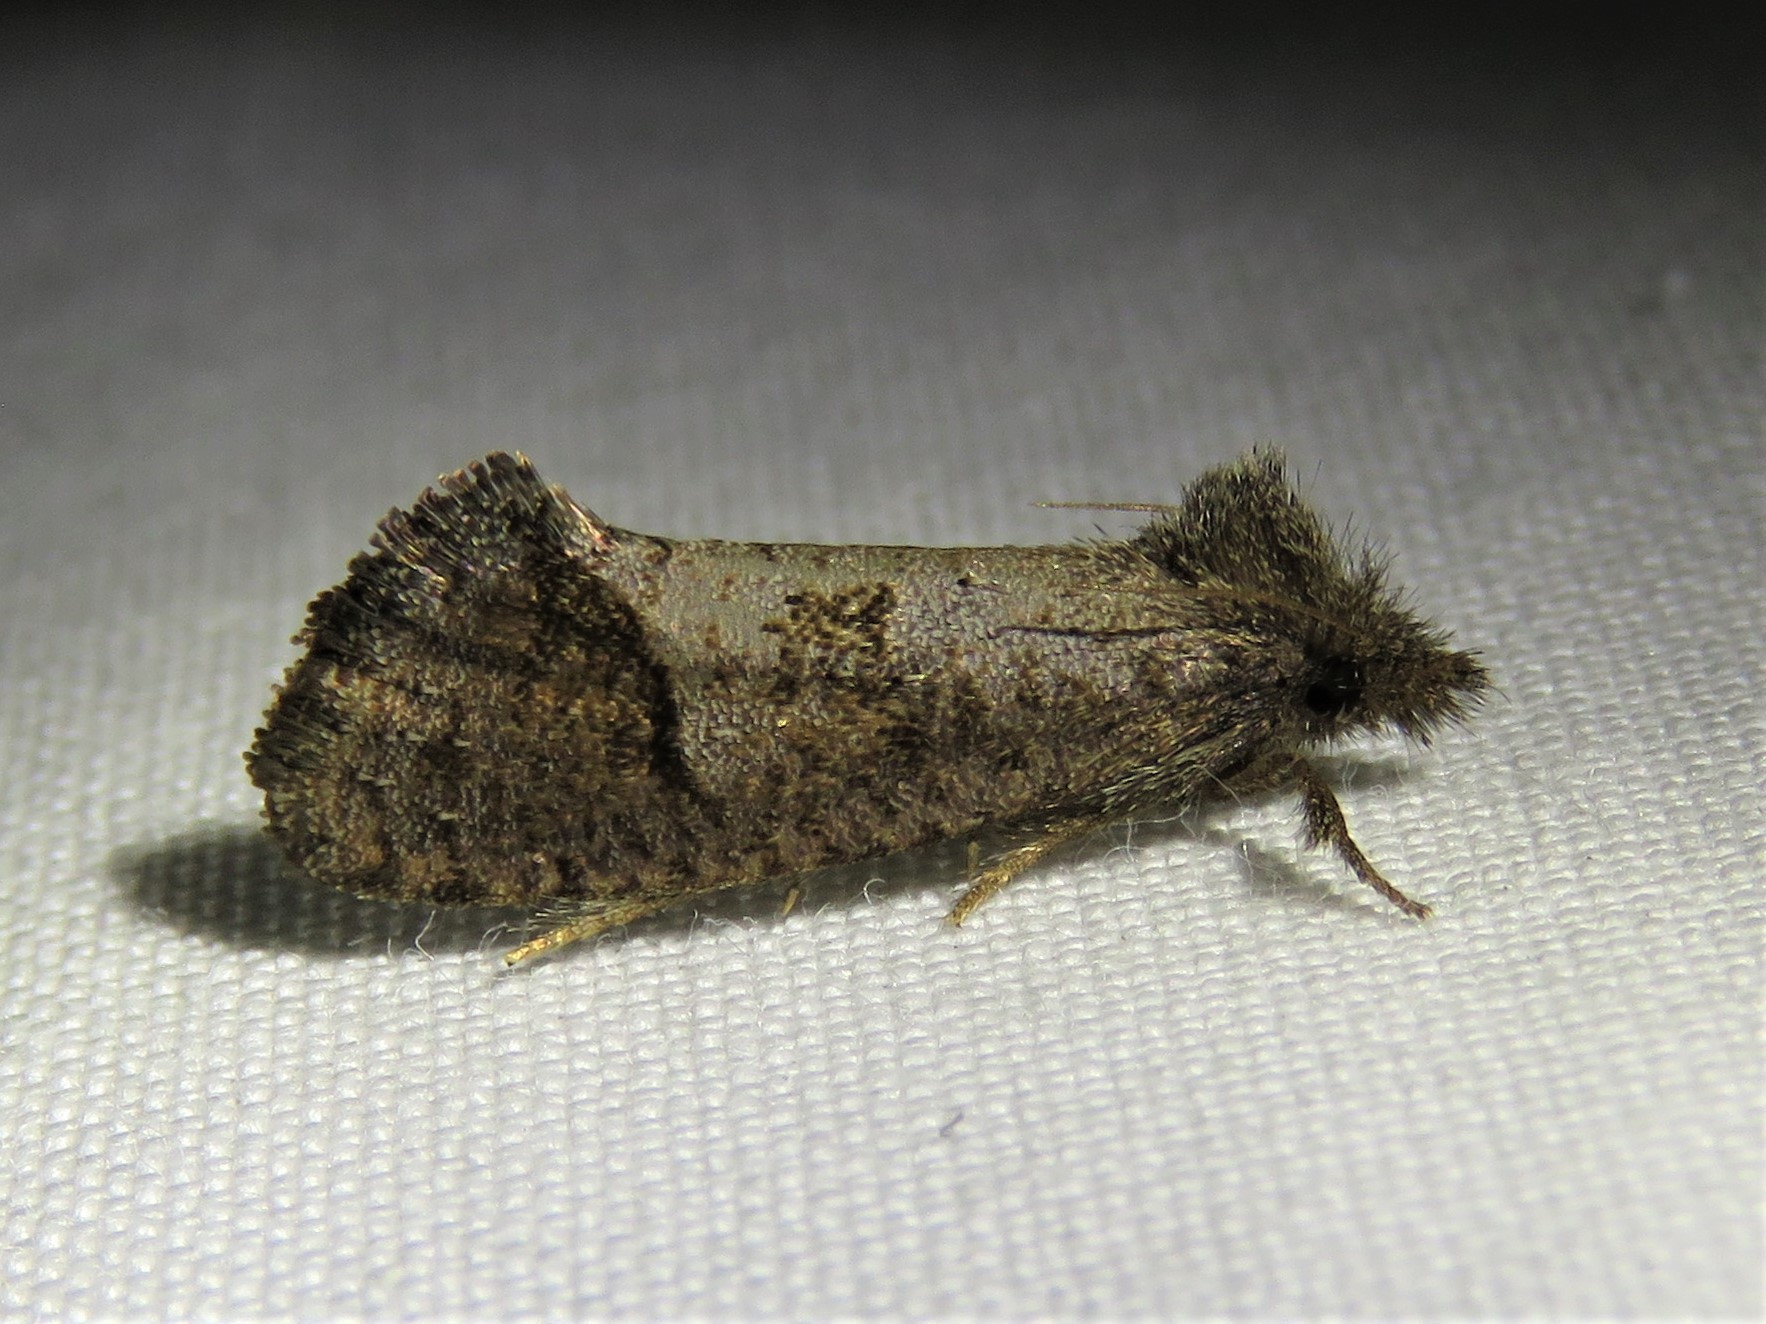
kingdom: Animalia
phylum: Arthropoda
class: Insecta
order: Lepidoptera
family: Tineidae
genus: Acrolophus
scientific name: Acrolophus texanella
